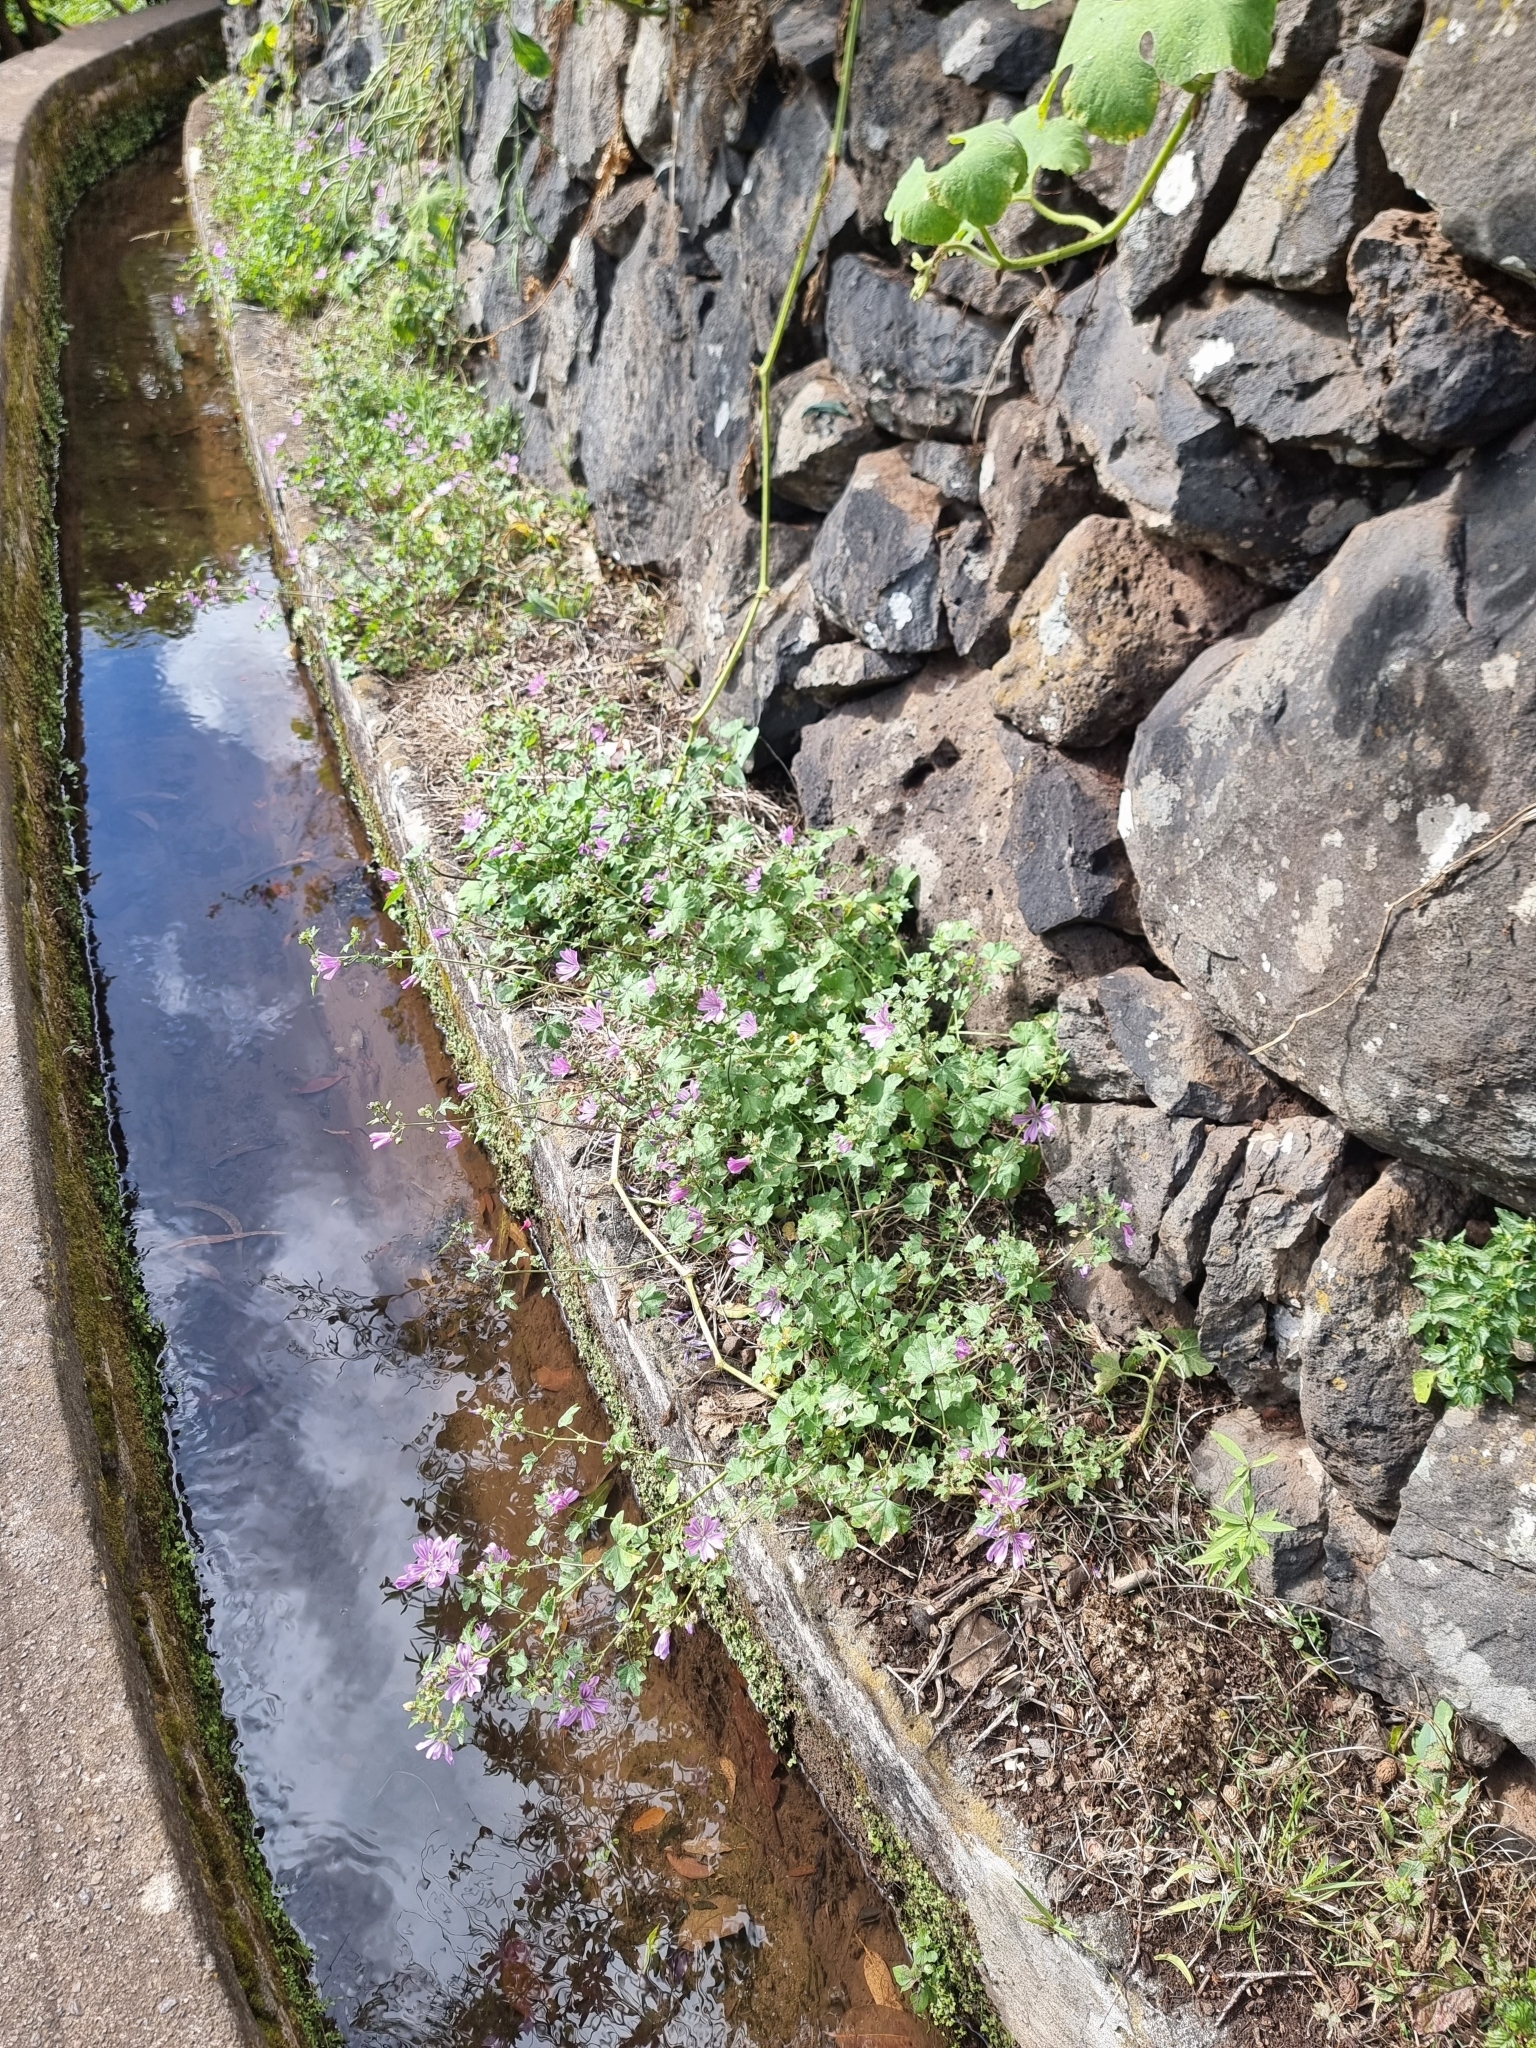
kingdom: Plantae
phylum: Tracheophyta
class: Magnoliopsida
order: Malvales
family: Malvaceae
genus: Malva
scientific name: Malva sylvestris
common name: Common mallow
